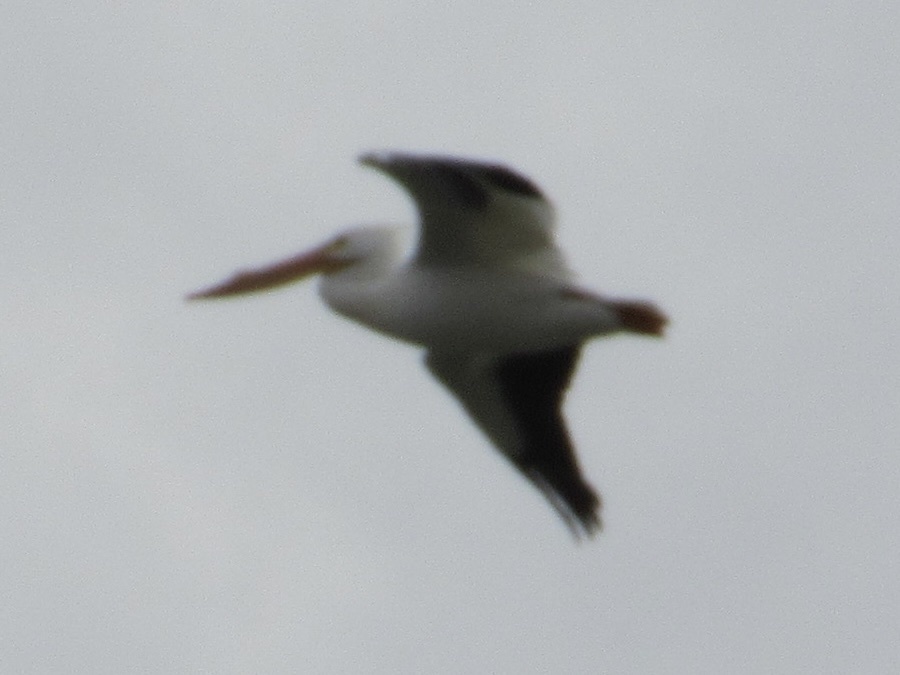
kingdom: Animalia
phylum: Chordata
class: Aves
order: Pelecaniformes
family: Pelecanidae
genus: Pelecanus
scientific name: Pelecanus erythrorhynchos
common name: American white pelican
